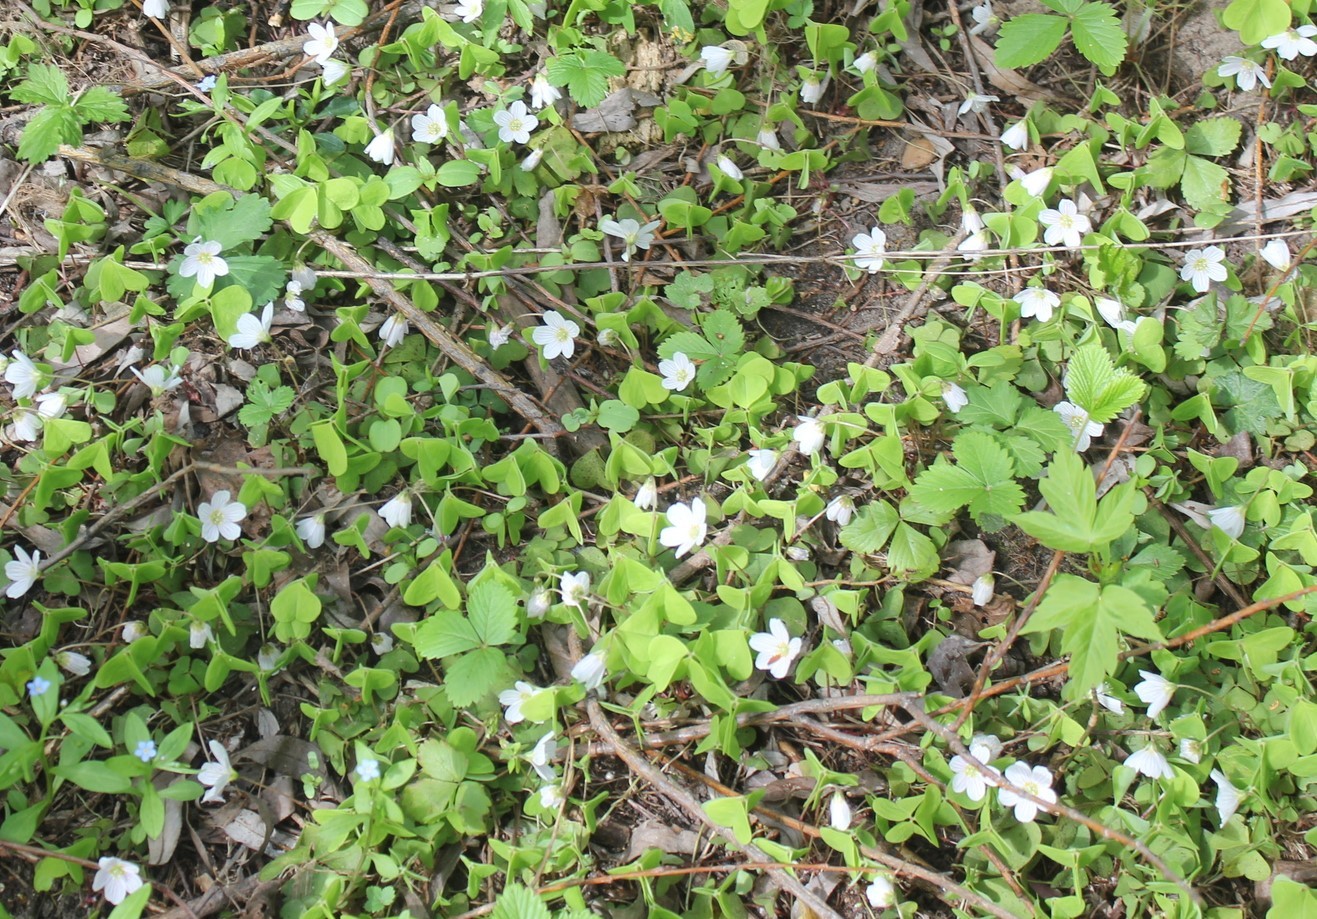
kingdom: Plantae
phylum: Tracheophyta
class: Magnoliopsida
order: Oxalidales
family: Oxalidaceae
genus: Oxalis
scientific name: Oxalis acetosella
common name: Wood-sorrel
